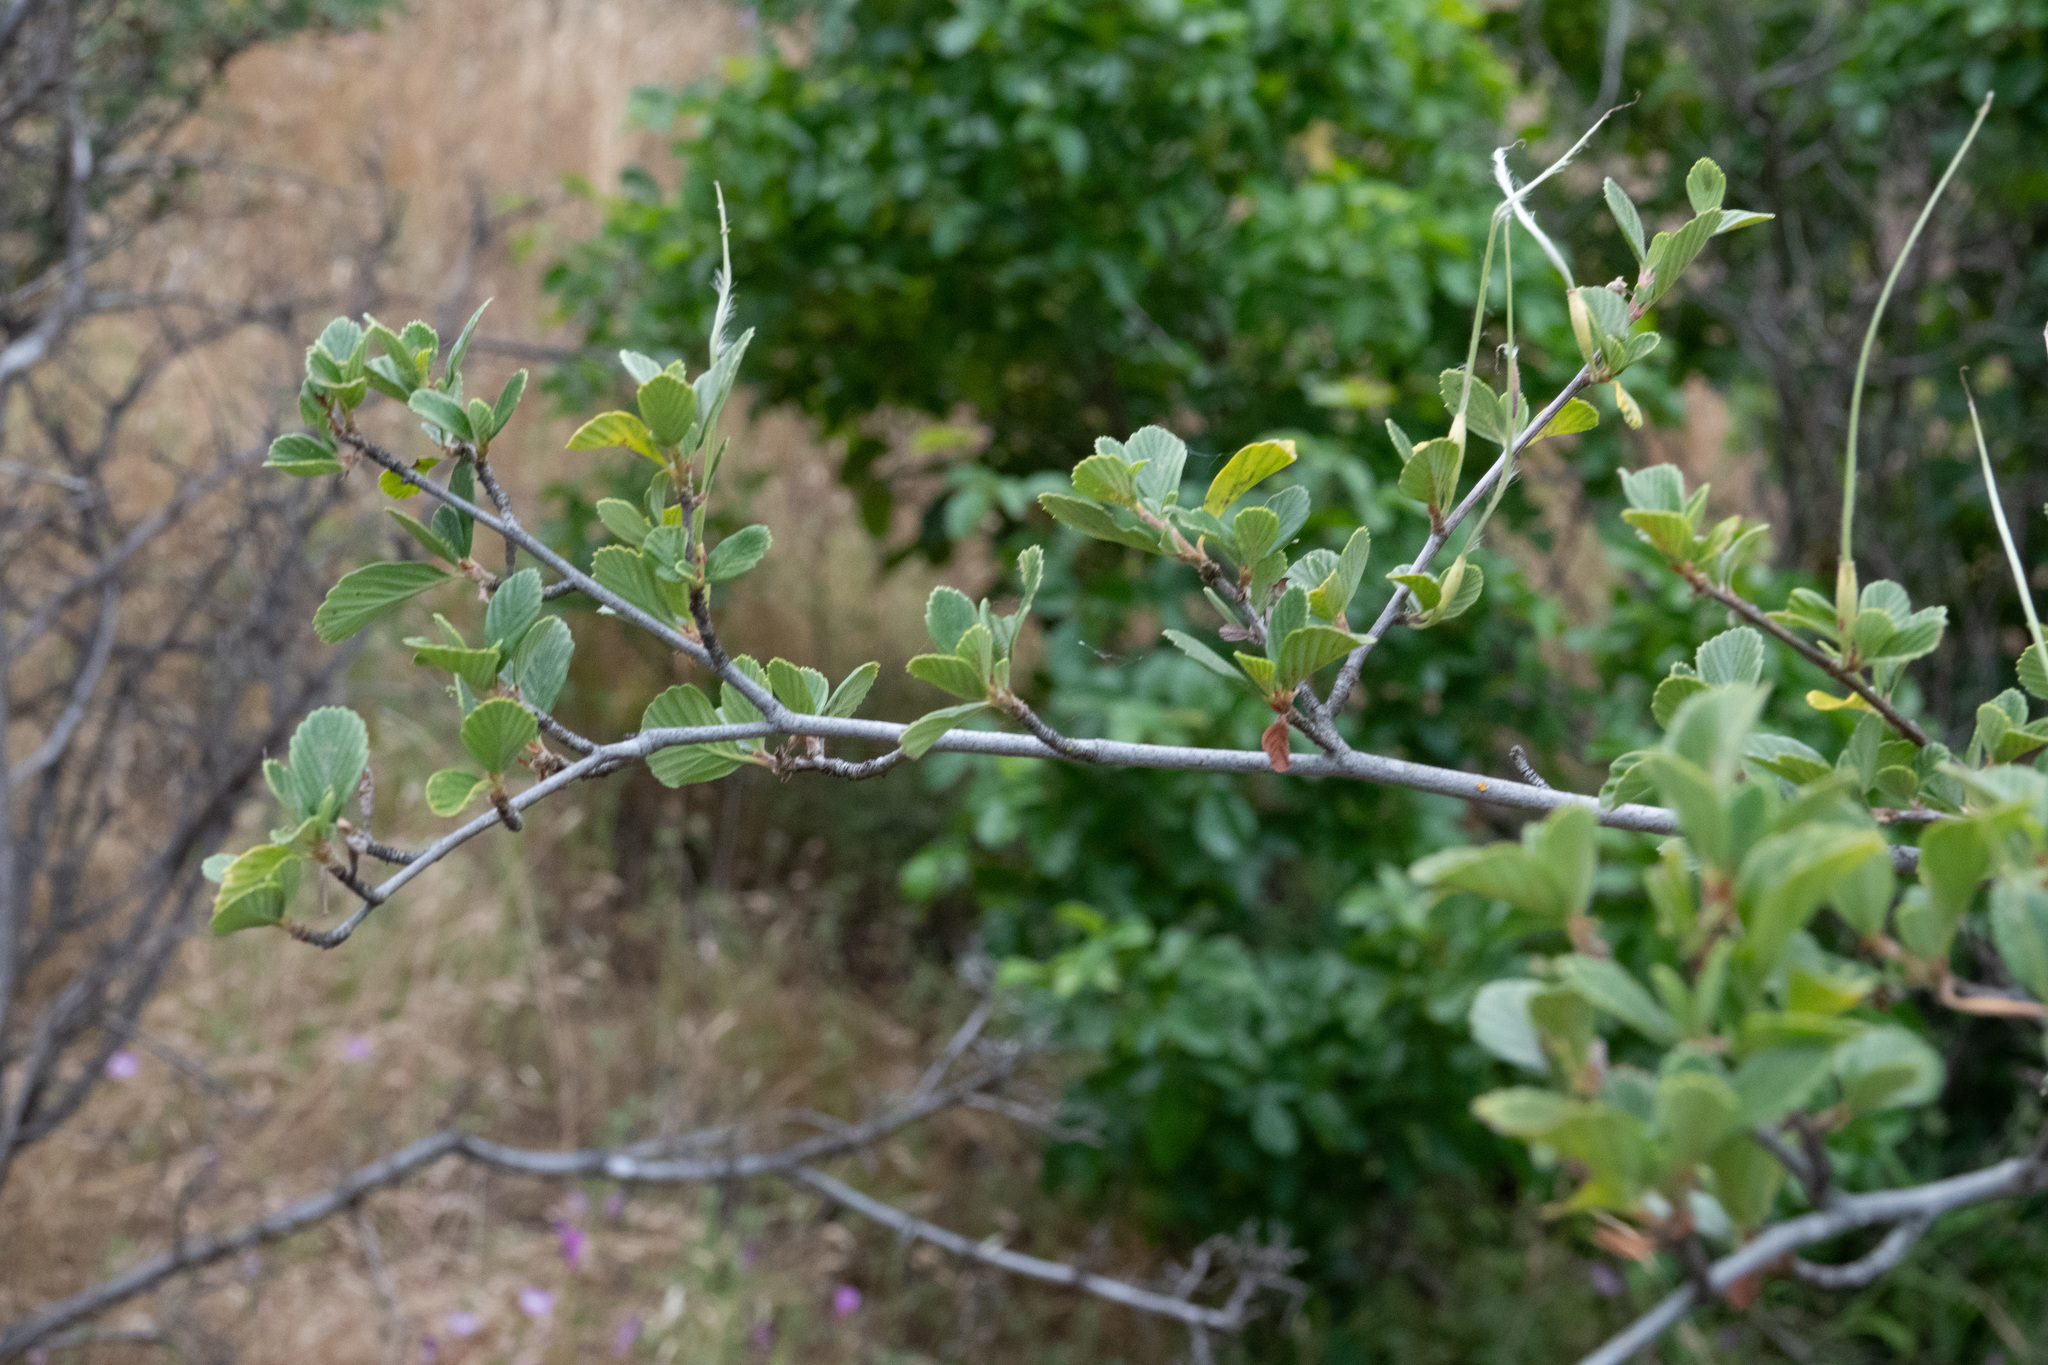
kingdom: Plantae
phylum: Tracheophyta
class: Magnoliopsida
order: Rosales
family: Rosaceae
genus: Cercocarpus
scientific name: Cercocarpus betuloides
